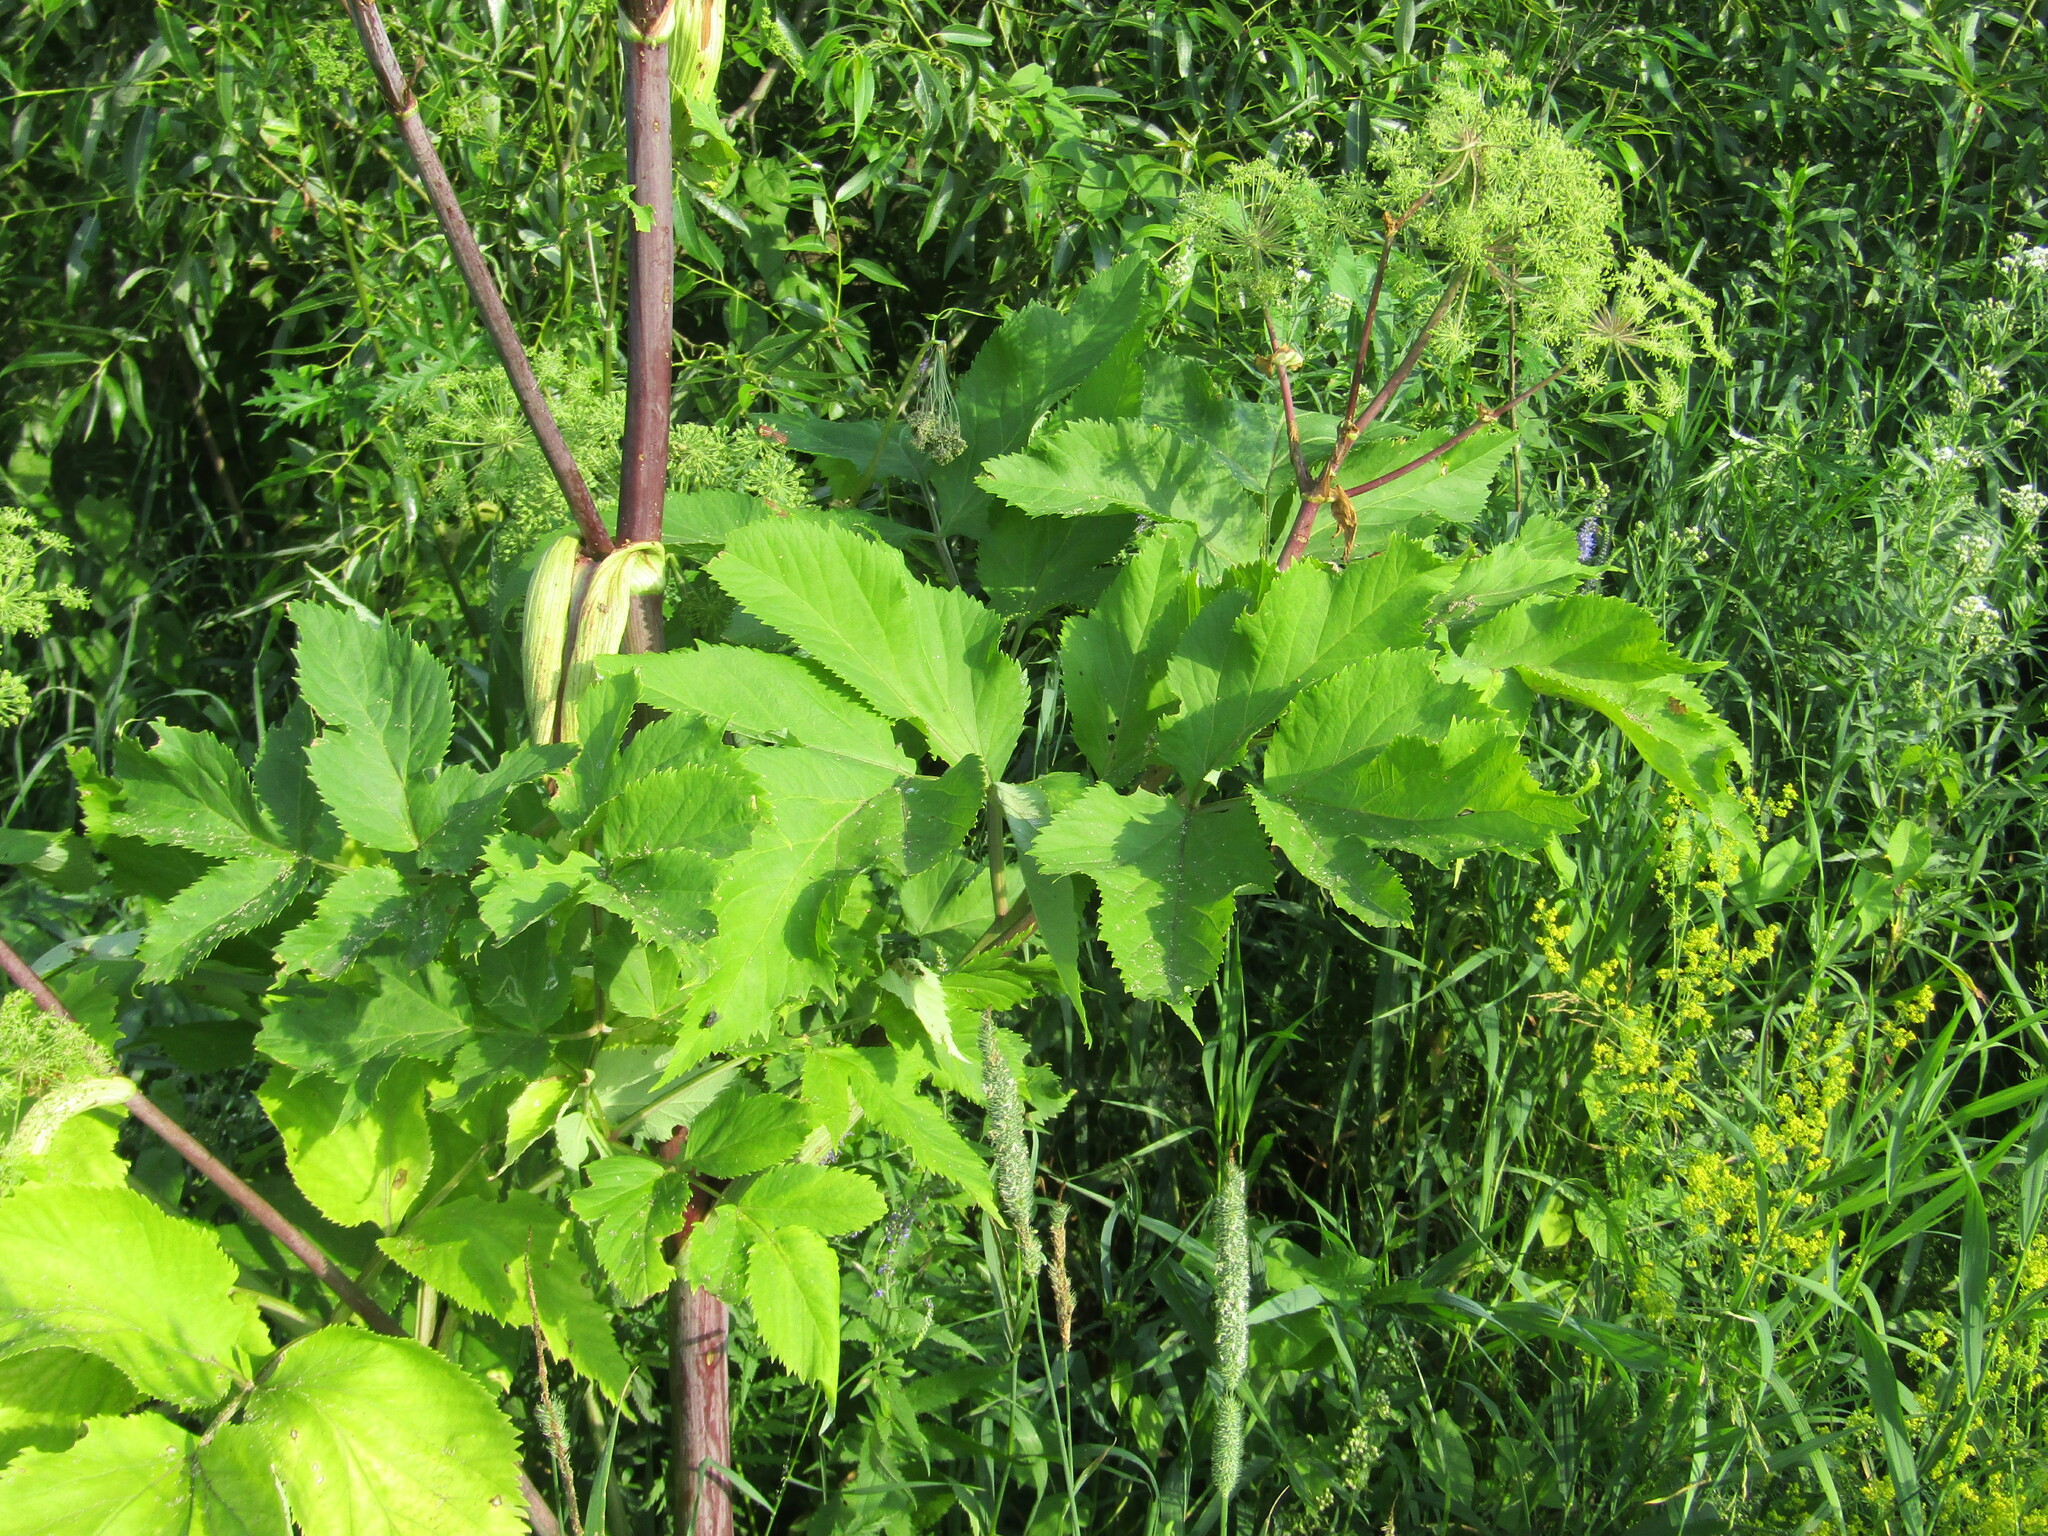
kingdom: Plantae
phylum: Tracheophyta
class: Magnoliopsida
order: Apiales
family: Apiaceae
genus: Angelica
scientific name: Angelica archangelica
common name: Garden angelica
